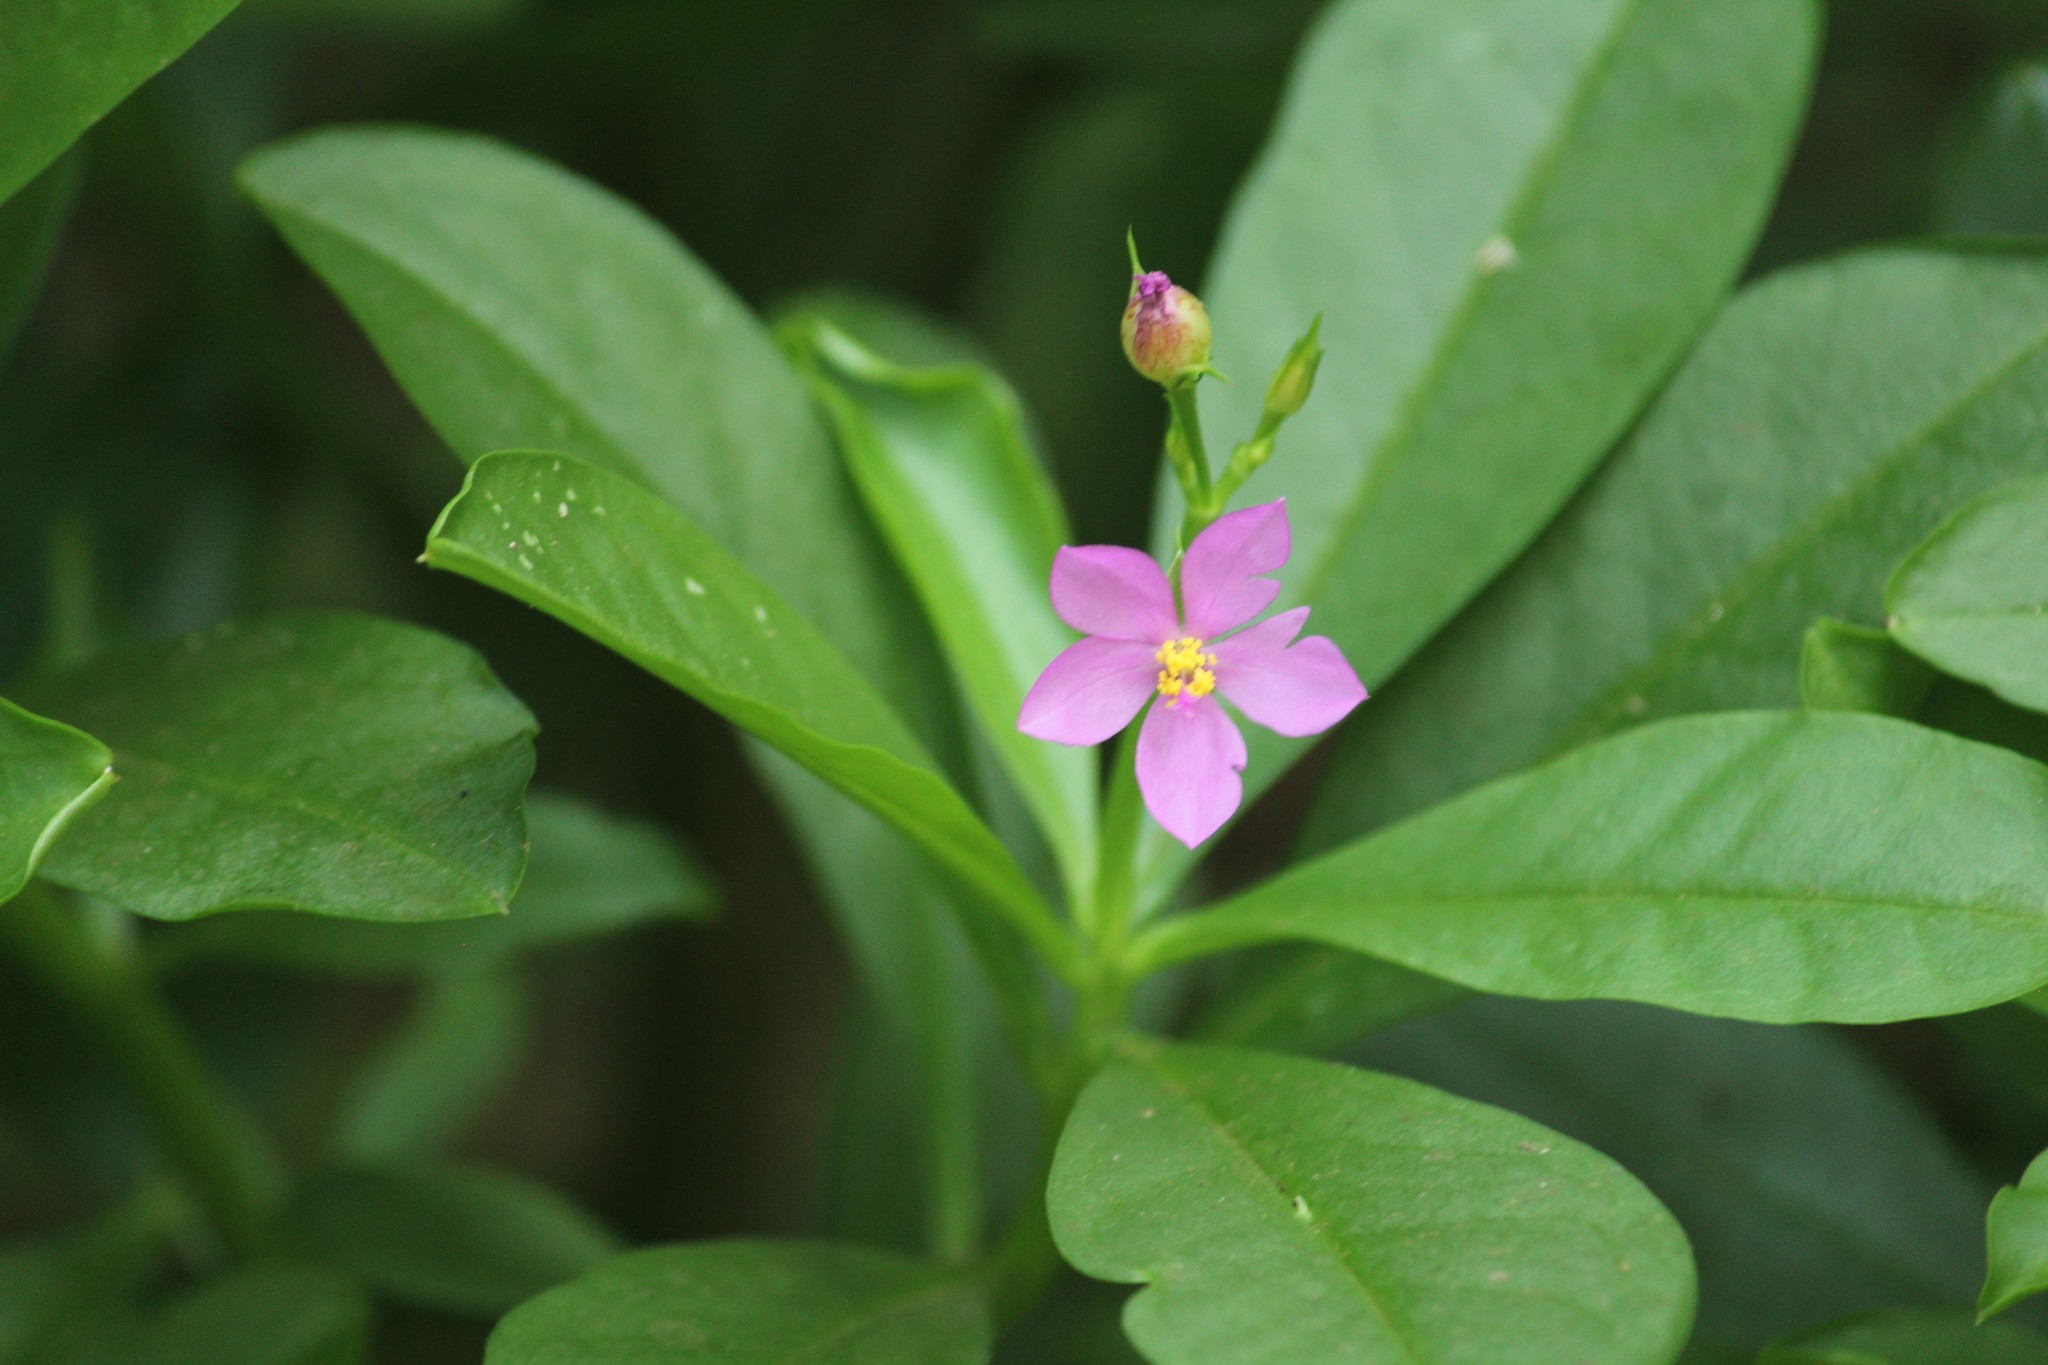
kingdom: Plantae
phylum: Tracheophyta
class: Magnoliopsida
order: Caryophyllales
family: Talinaceae
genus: Talinum
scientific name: Talinum fruticosum
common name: Verdolaga-francesa
